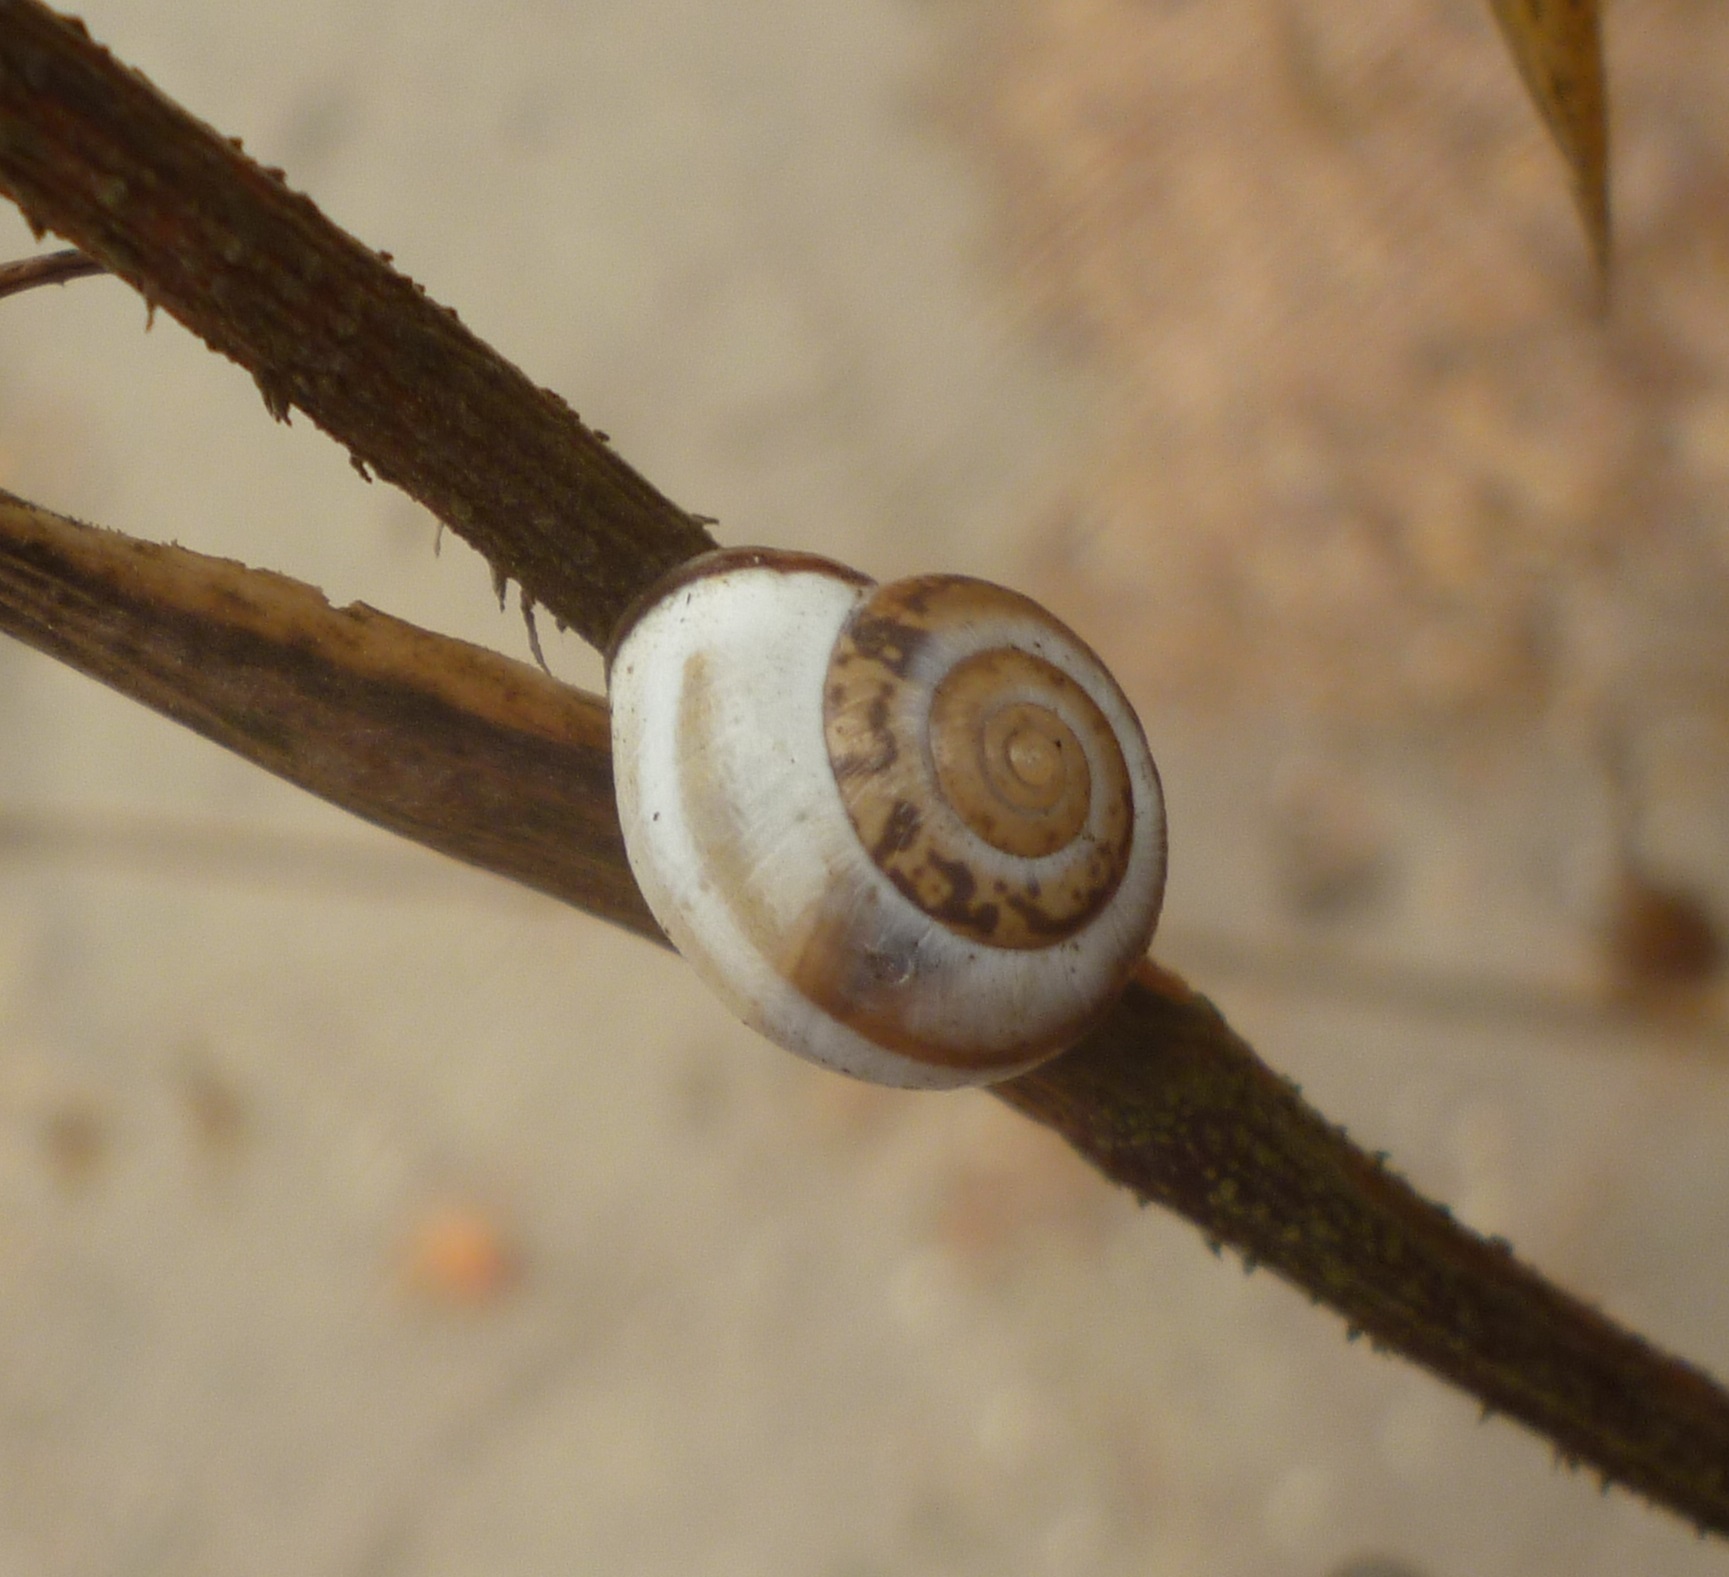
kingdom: Animalia
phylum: Mollusca
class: Gastropoda
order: Stylommatophora
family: Hygromiidae
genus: Monacha
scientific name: Monacha syriaca
